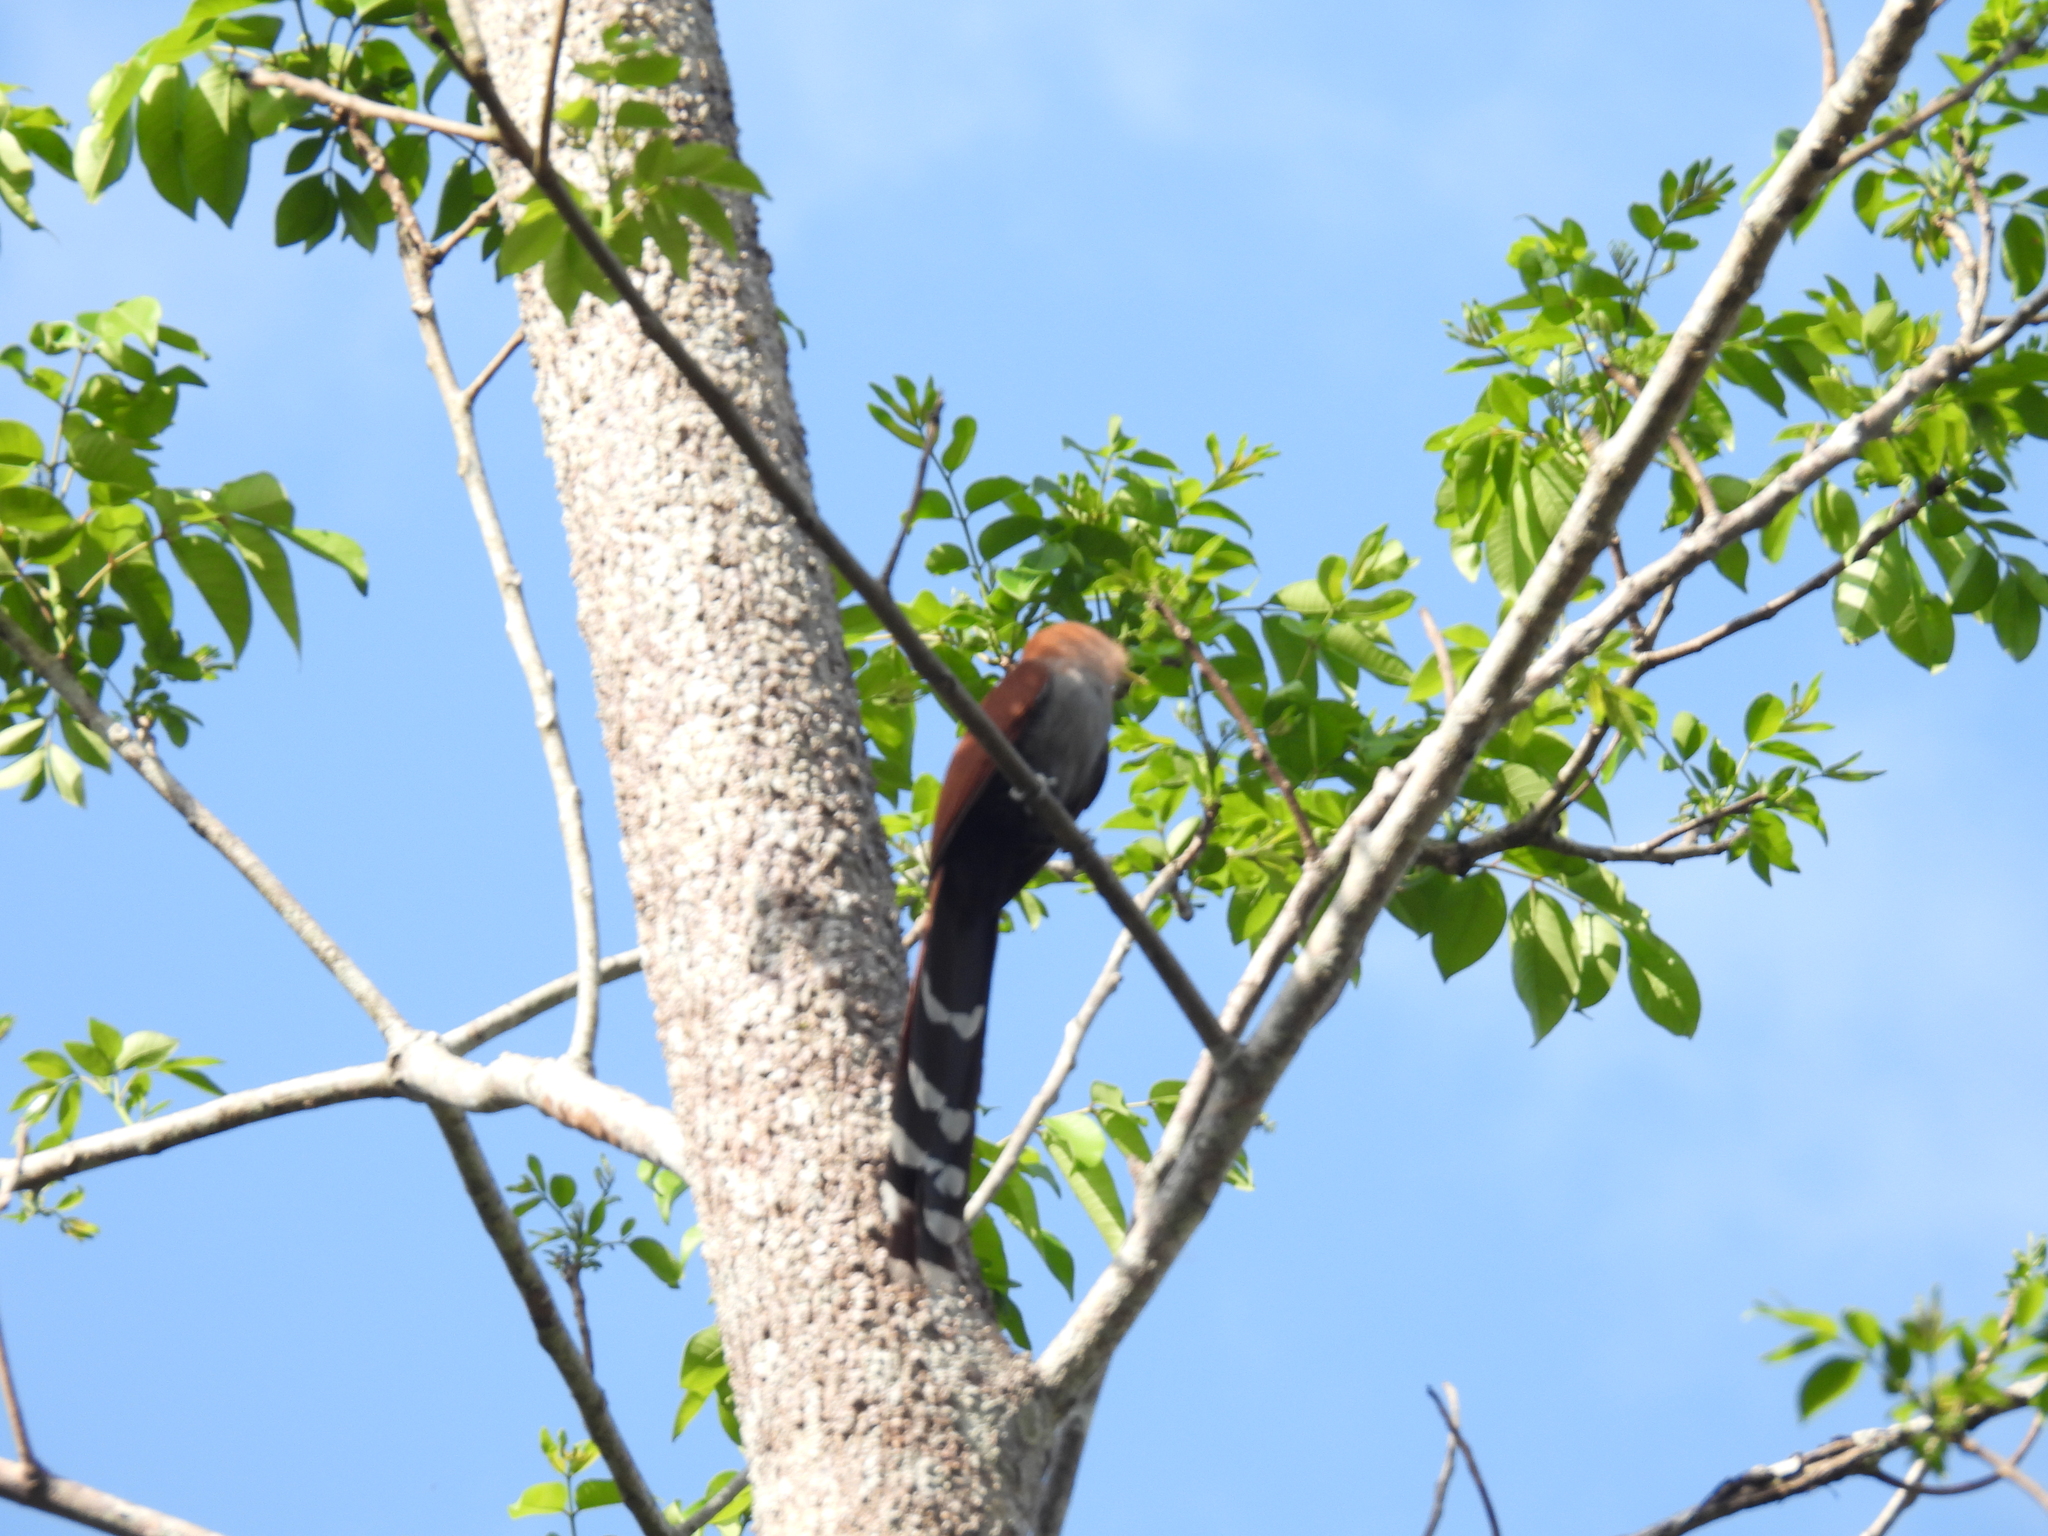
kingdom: Animalia
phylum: Chordata
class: Aves
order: Cuculiformes
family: Cuculidae
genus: Piaya
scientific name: Piaya cayana
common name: Squirrel cuckoo
